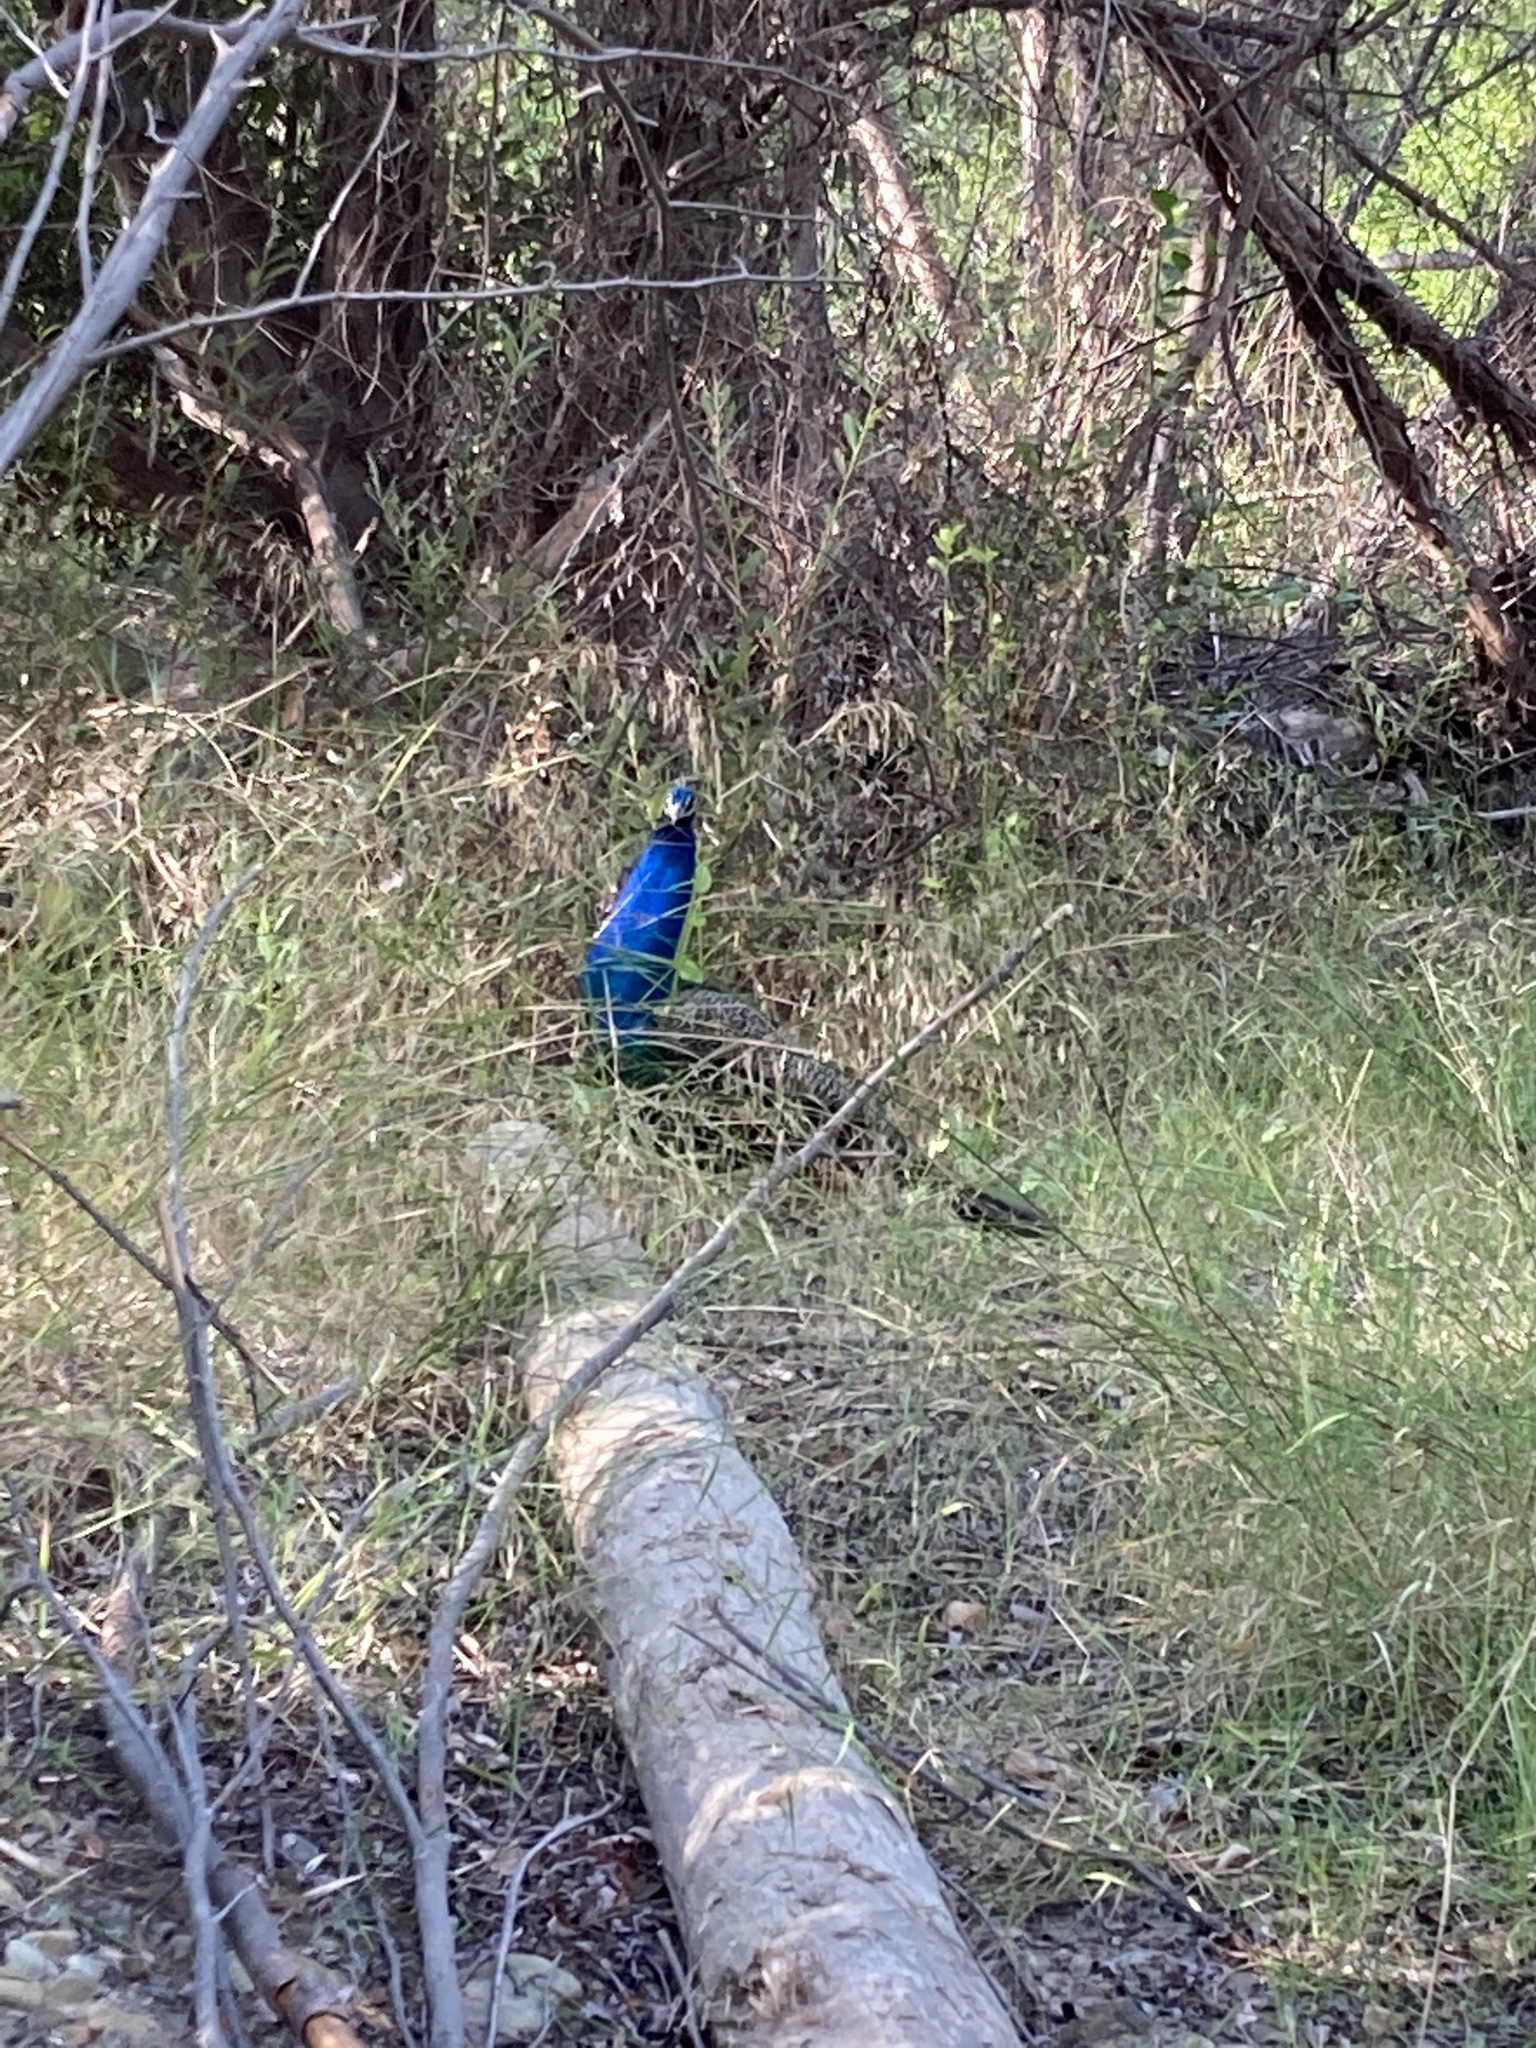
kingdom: Animalia
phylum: Chordata
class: Aves
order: Galliformes
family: Phasianidae
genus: Pavo
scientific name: Pavo cristatus
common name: Indian peafowl
